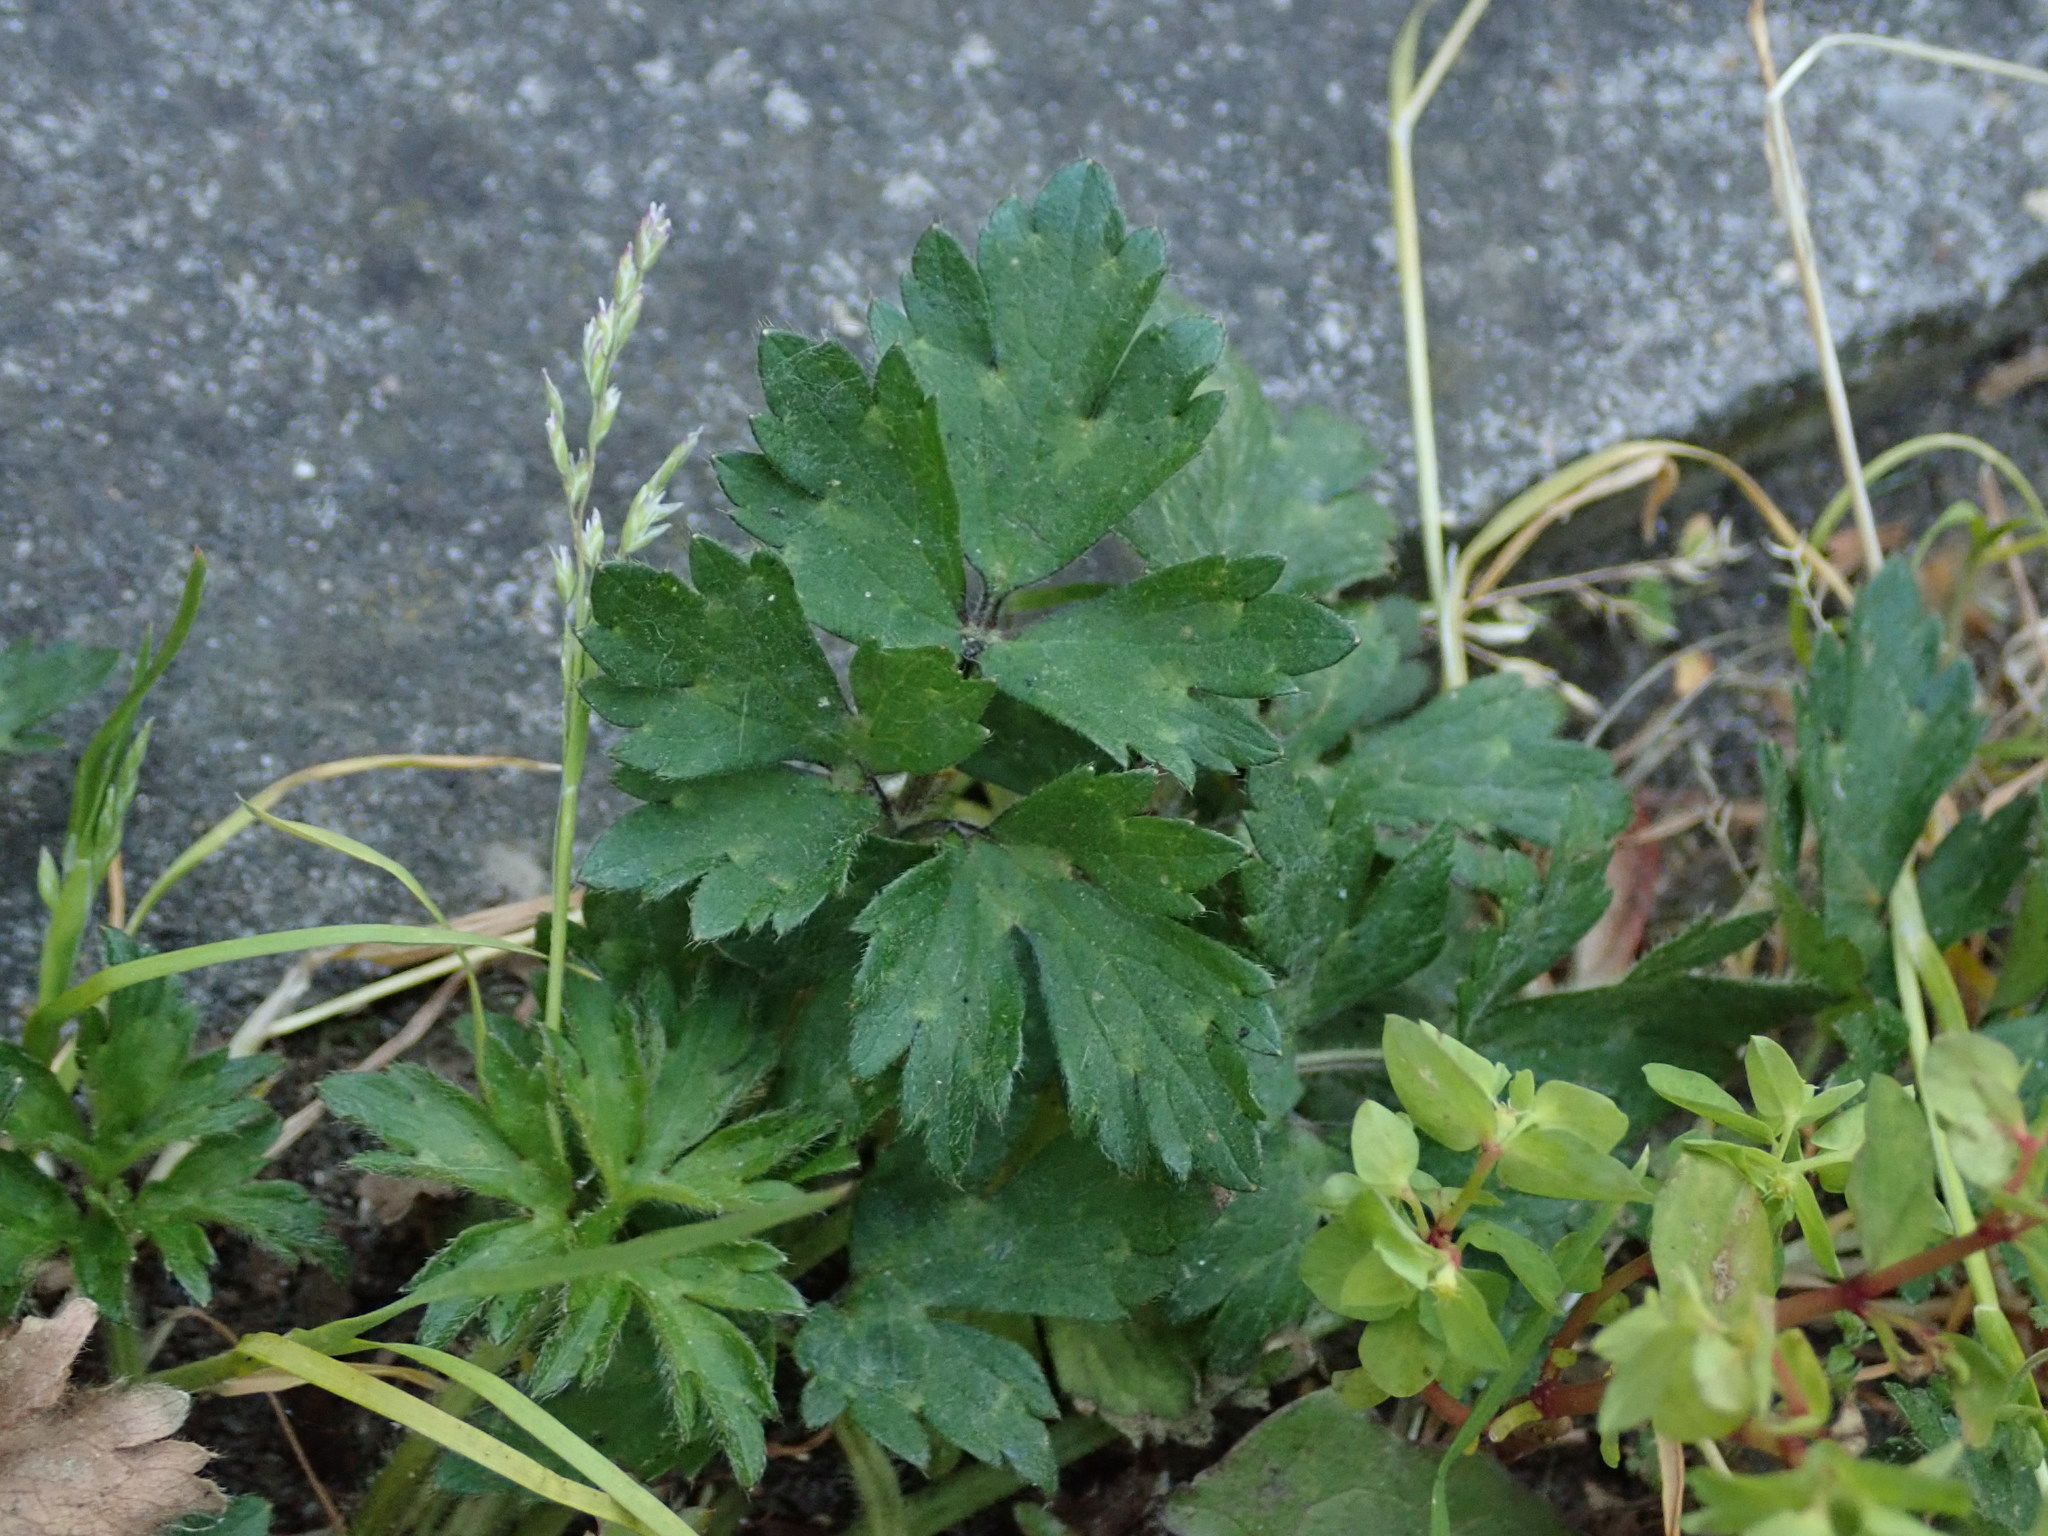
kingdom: Plantae
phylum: Tracheophyta
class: Magnoliopsida
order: Ranunculales
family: Ranunculaceae
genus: Ranunculus
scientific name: Ranunculus repens
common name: Creeping buttercup
